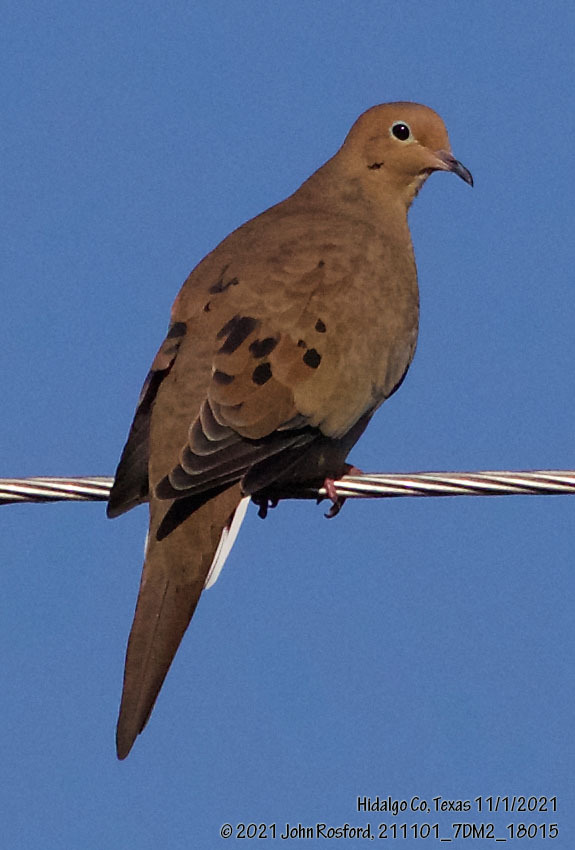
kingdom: Animalia
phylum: Chordata
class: Aves
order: Columbiformes
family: Columbidae
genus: Zenaida
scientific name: Zenaida macroura
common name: Mourning dove
